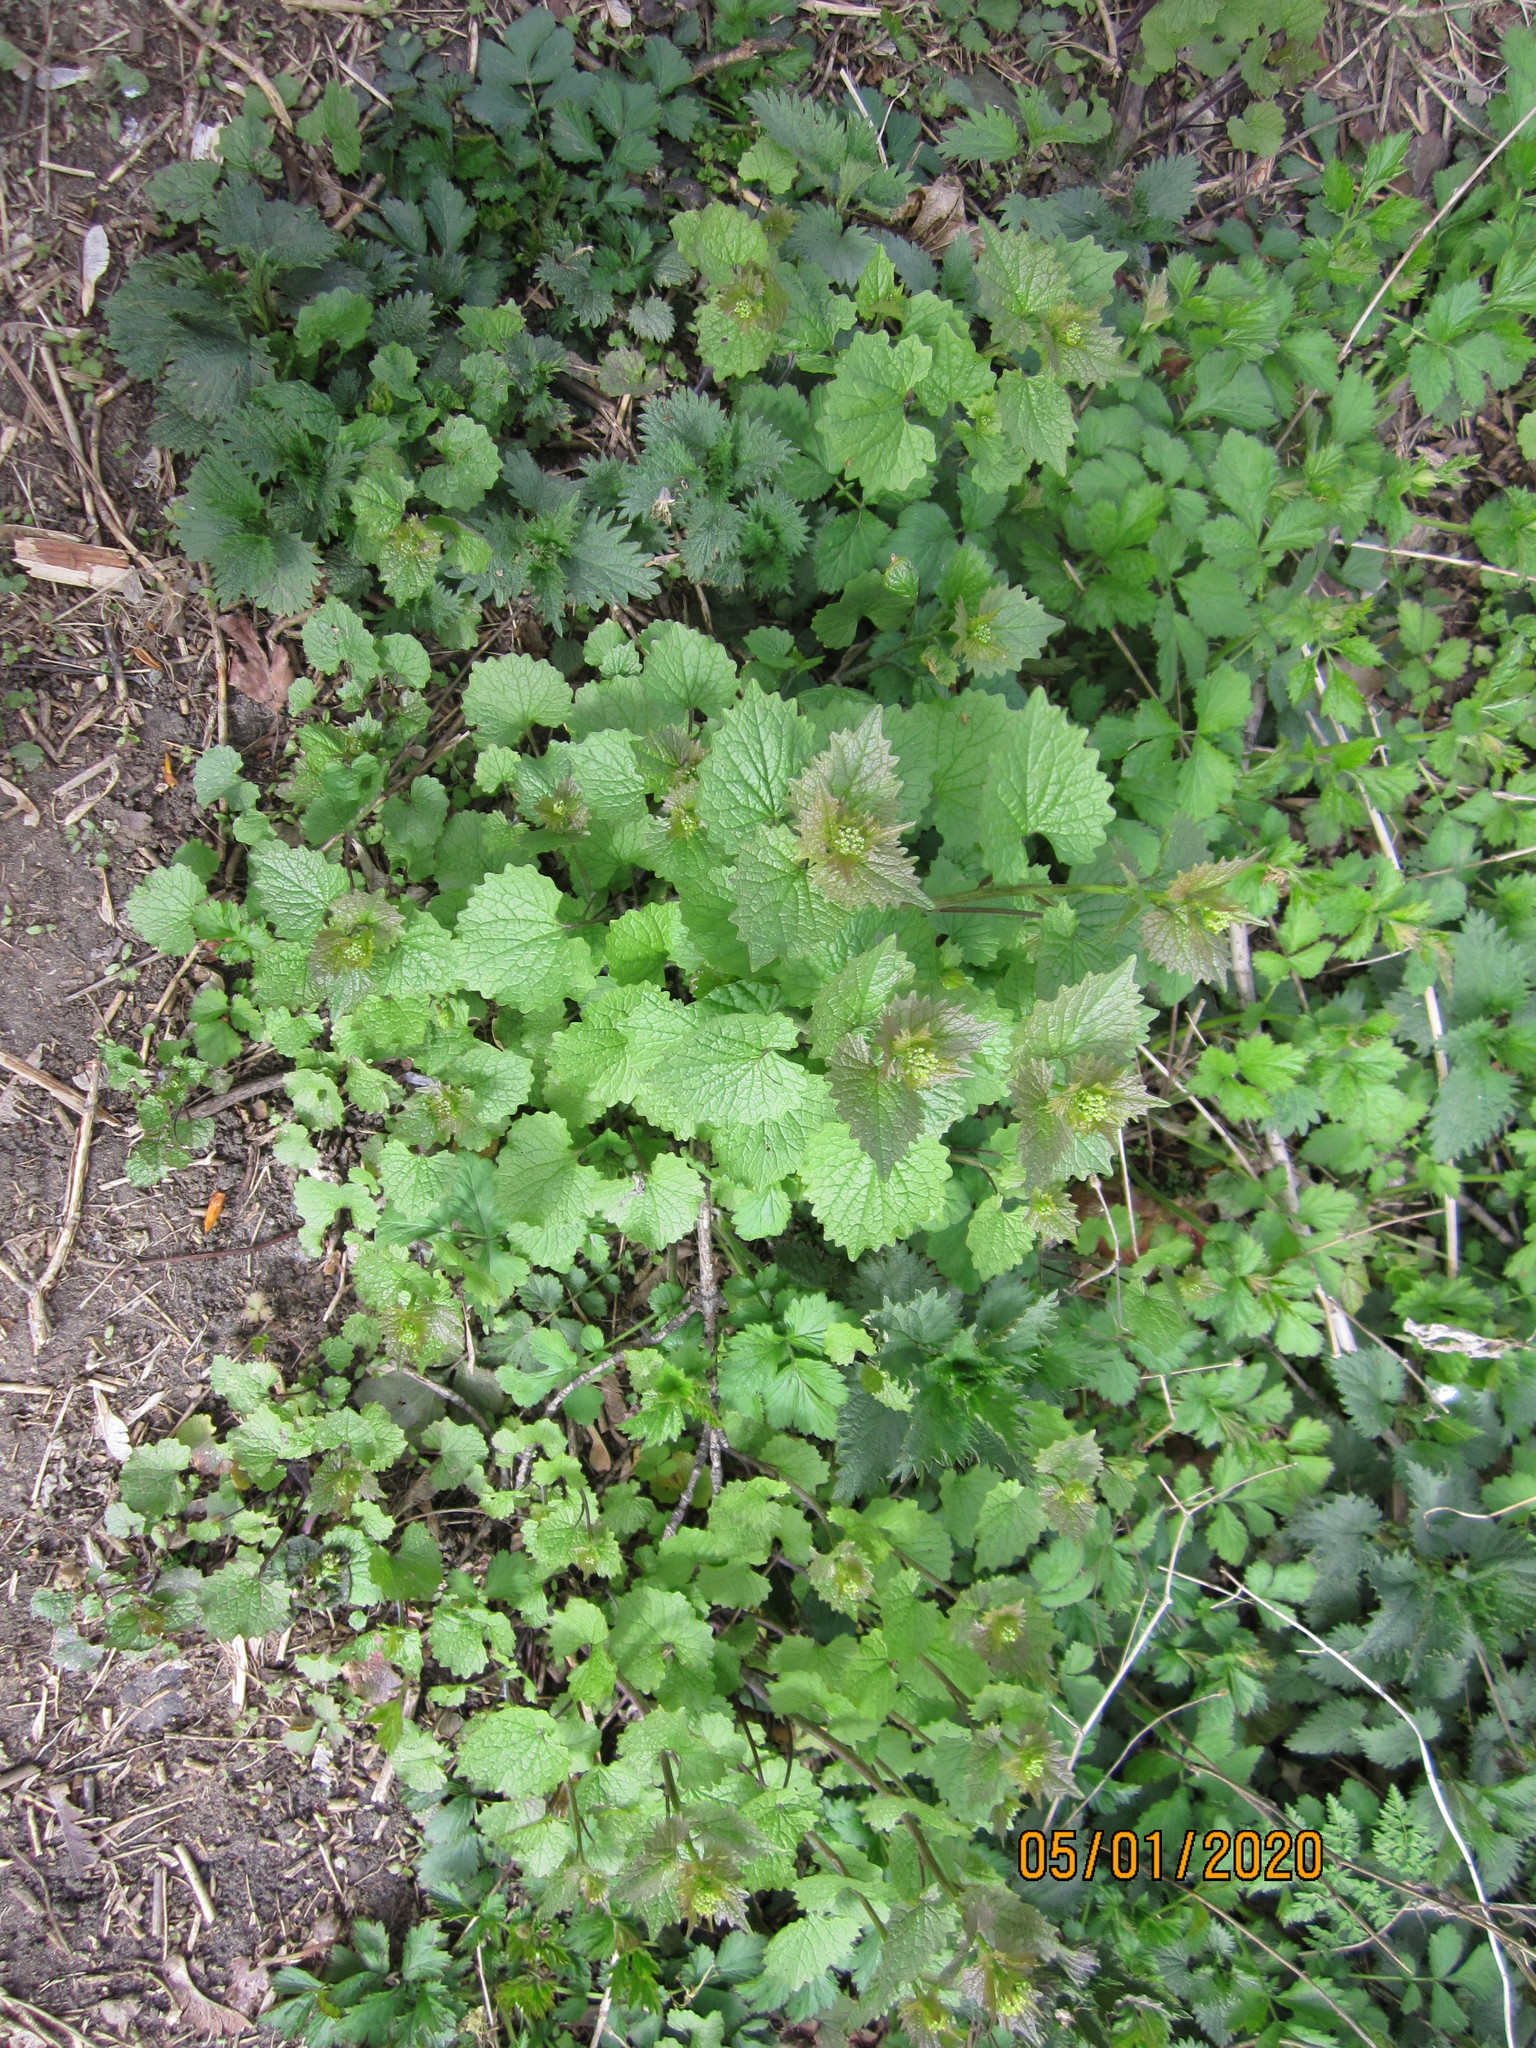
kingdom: Plantae
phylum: Tracheophyta
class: Magnoliopsida
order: Brassicales
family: Brassicaceae
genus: Alliaria
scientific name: Alliaria petiolata
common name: Garlic mustard
